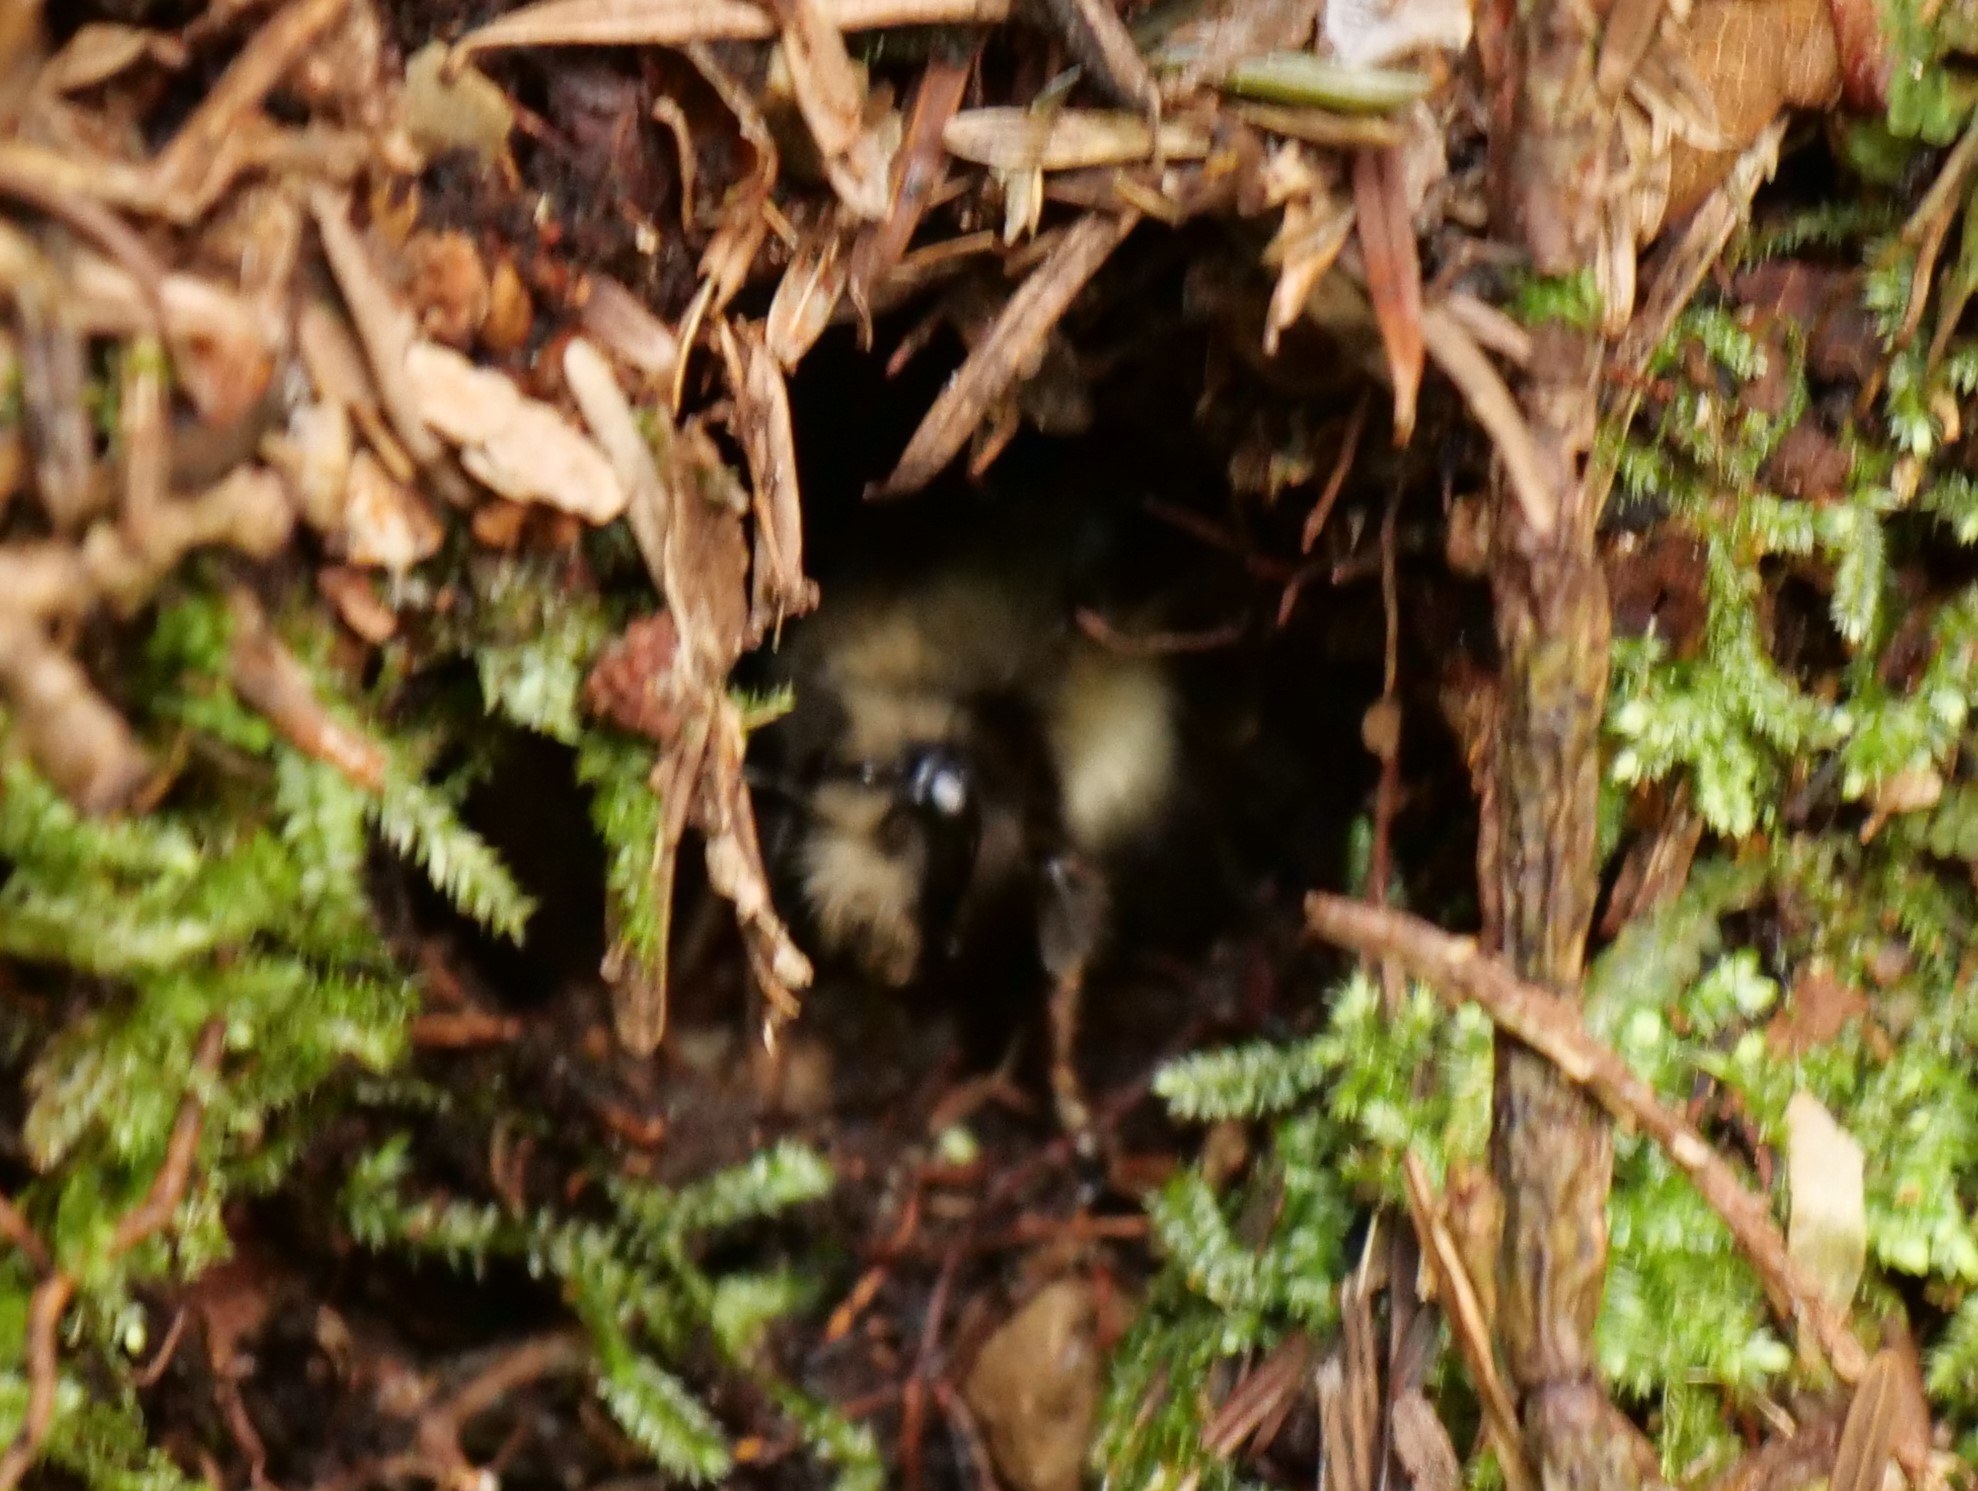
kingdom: Animalia
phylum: Arthropoda
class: Insecta
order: Hymenoptera
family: Apidae
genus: Bombus
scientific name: Bombus flavifrons
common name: Yellow head bumble bee
